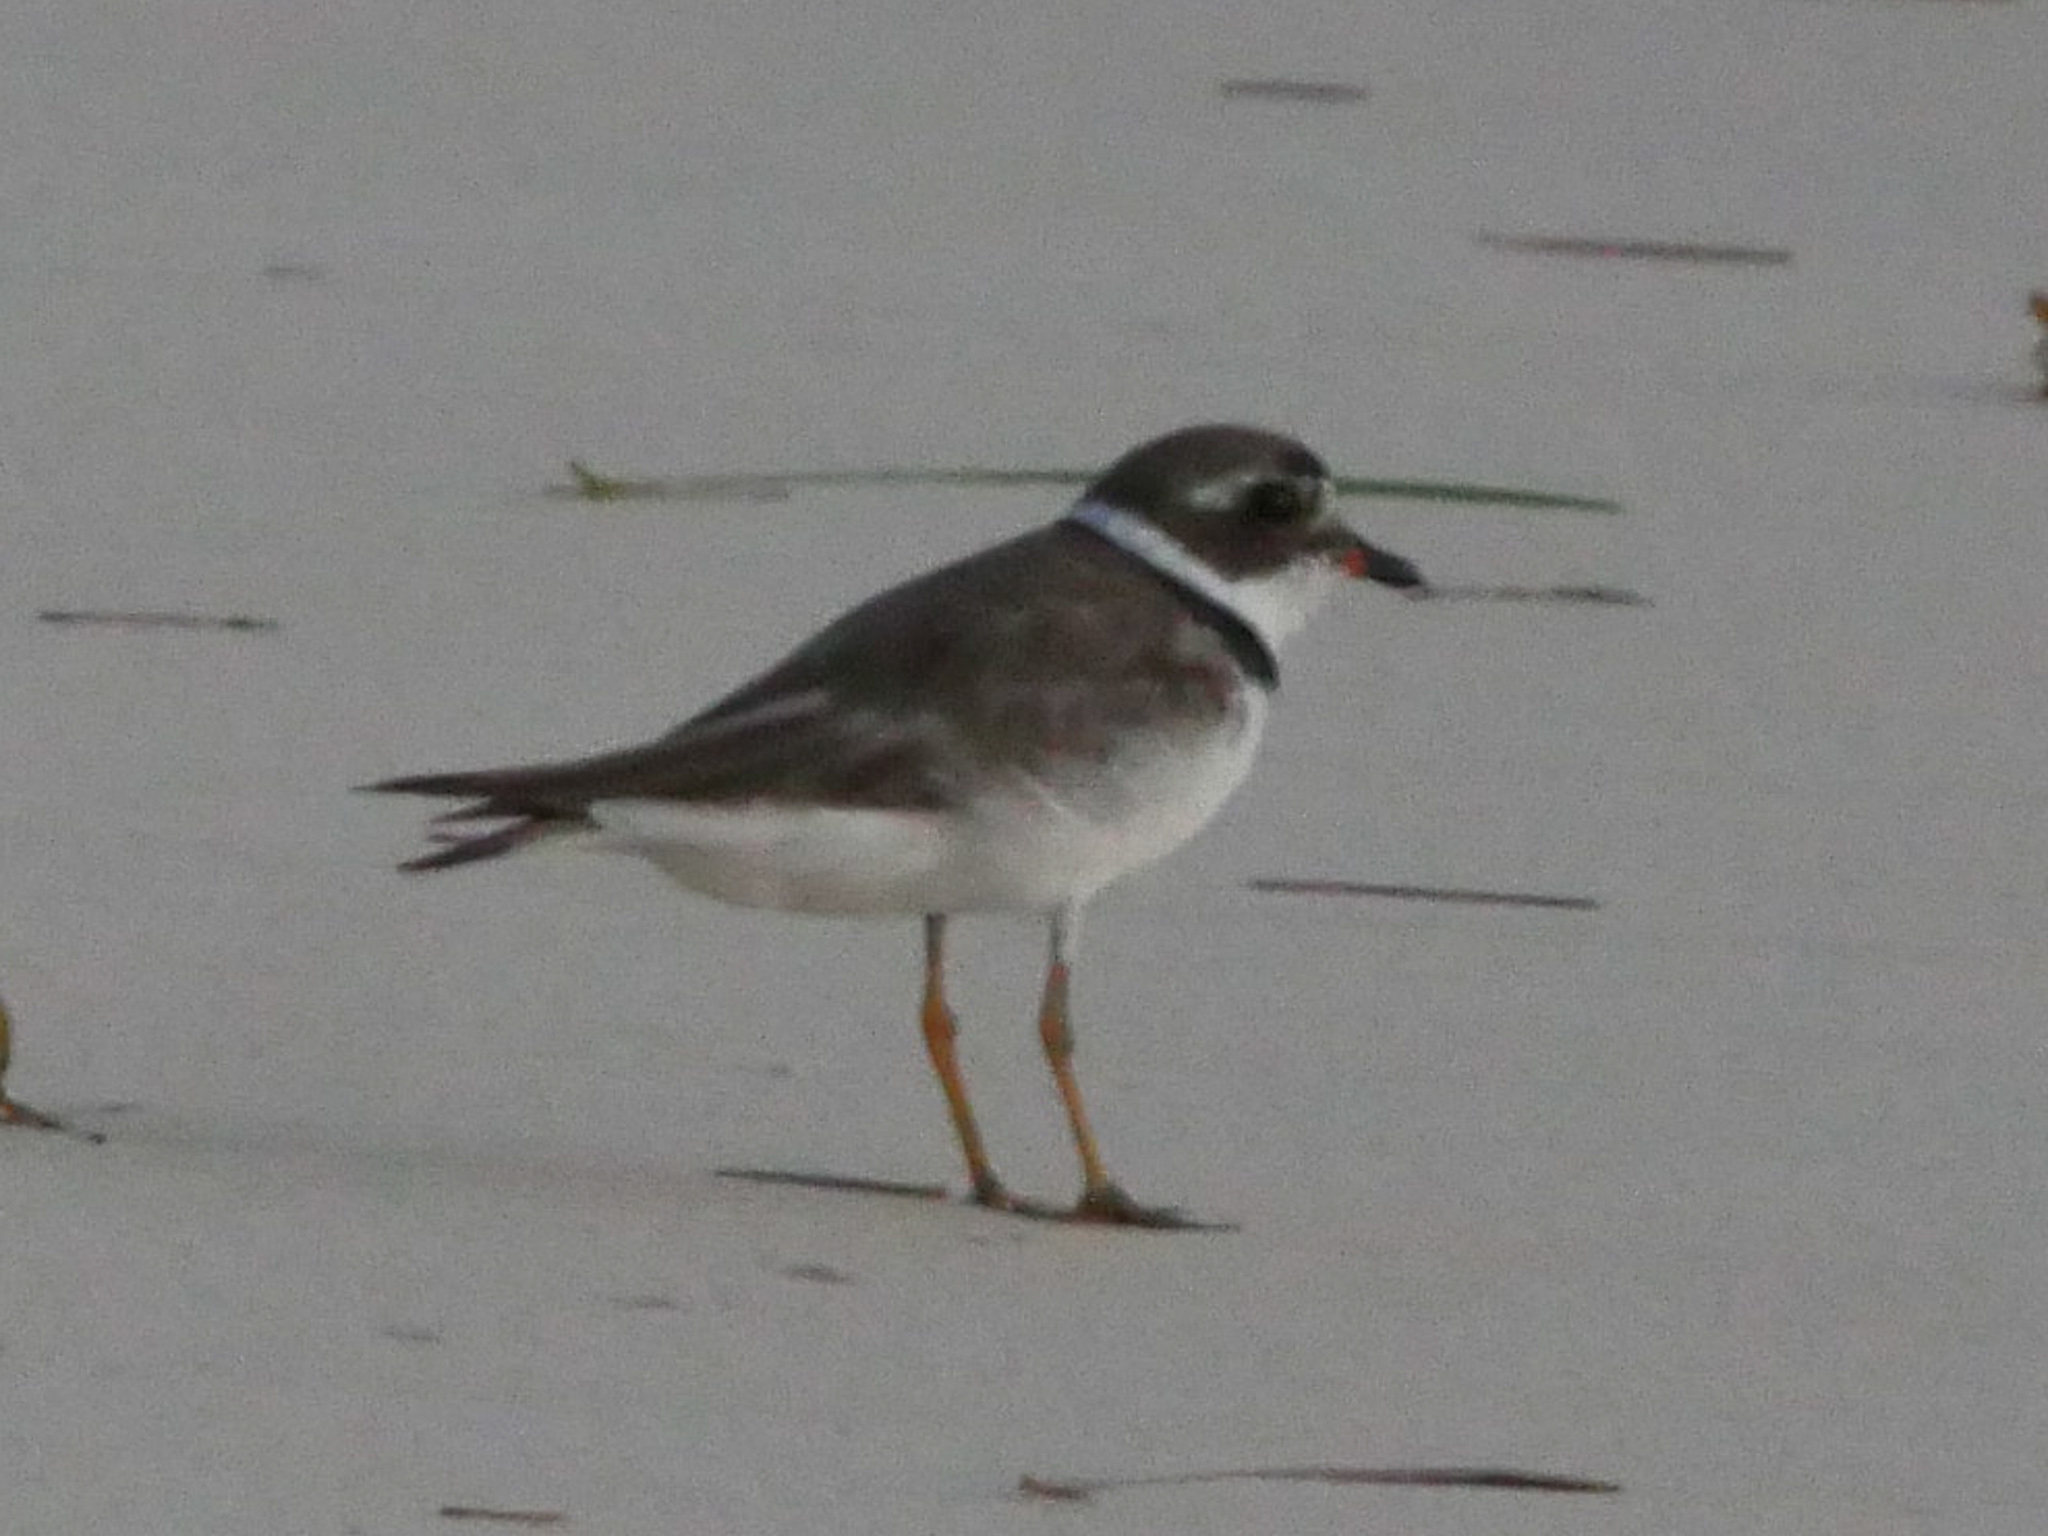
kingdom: Animalia
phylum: Chordata
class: Aves
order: Charadriiformes
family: Charadriidae
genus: Charadrius
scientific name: Charadrius semipalmatus
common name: Semipalmated plover
